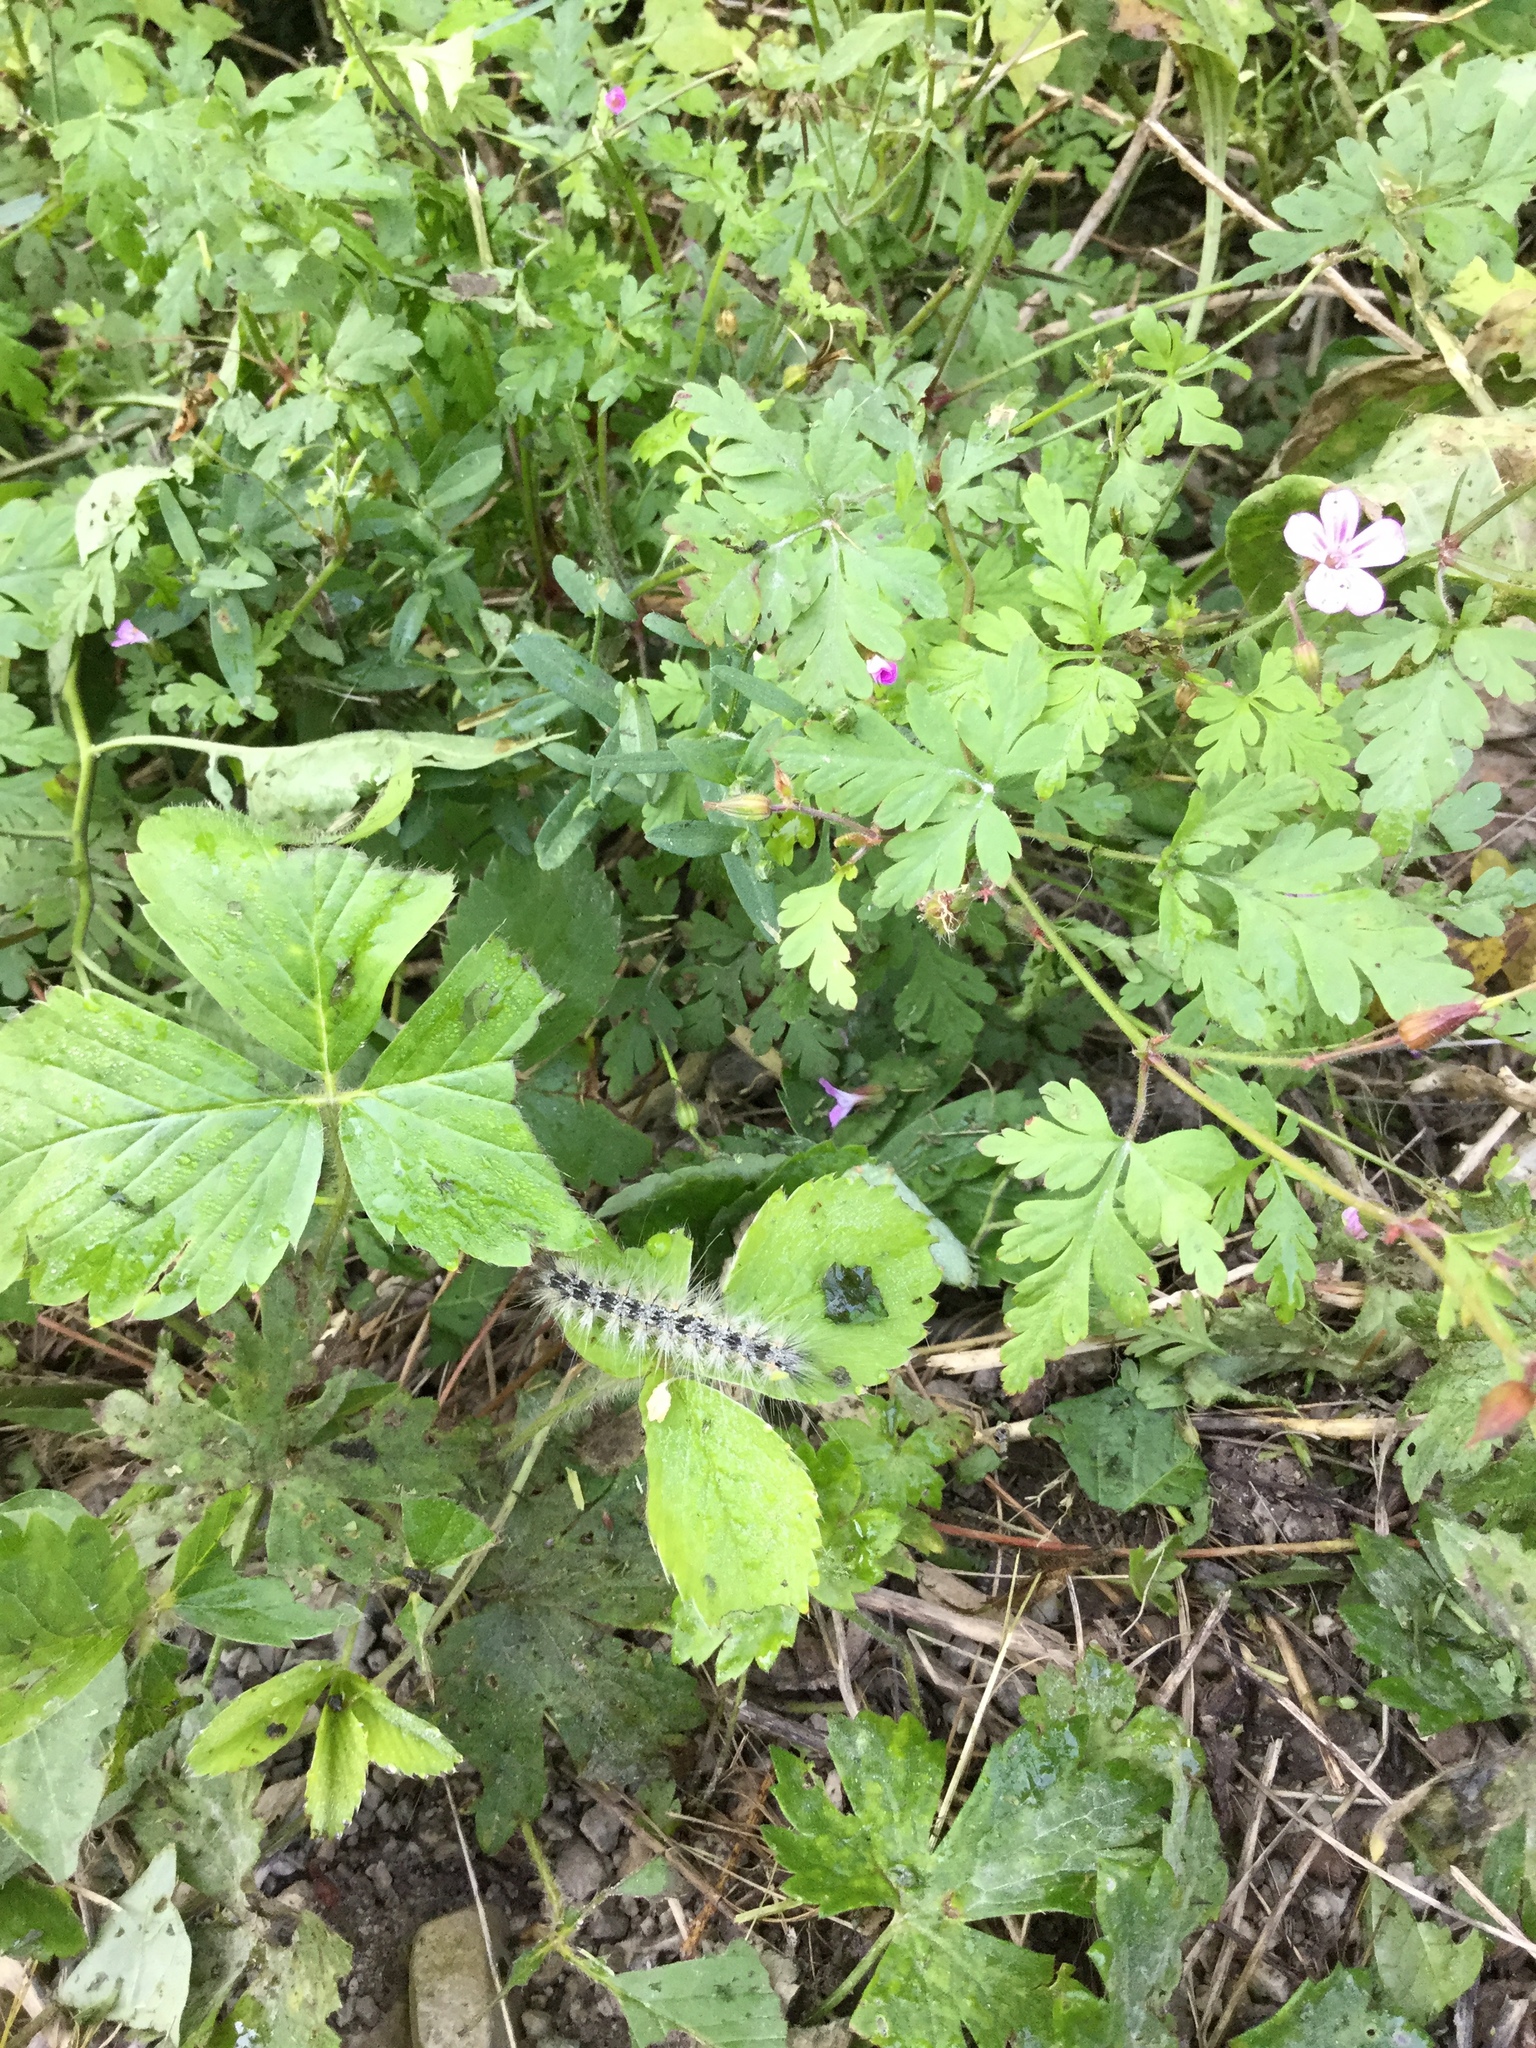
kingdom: Animalia
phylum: Arthropoda
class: Insecta
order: Lepidoptera
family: Erebidae
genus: Hyphantria
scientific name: Hyphantria cunea
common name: American white moth
